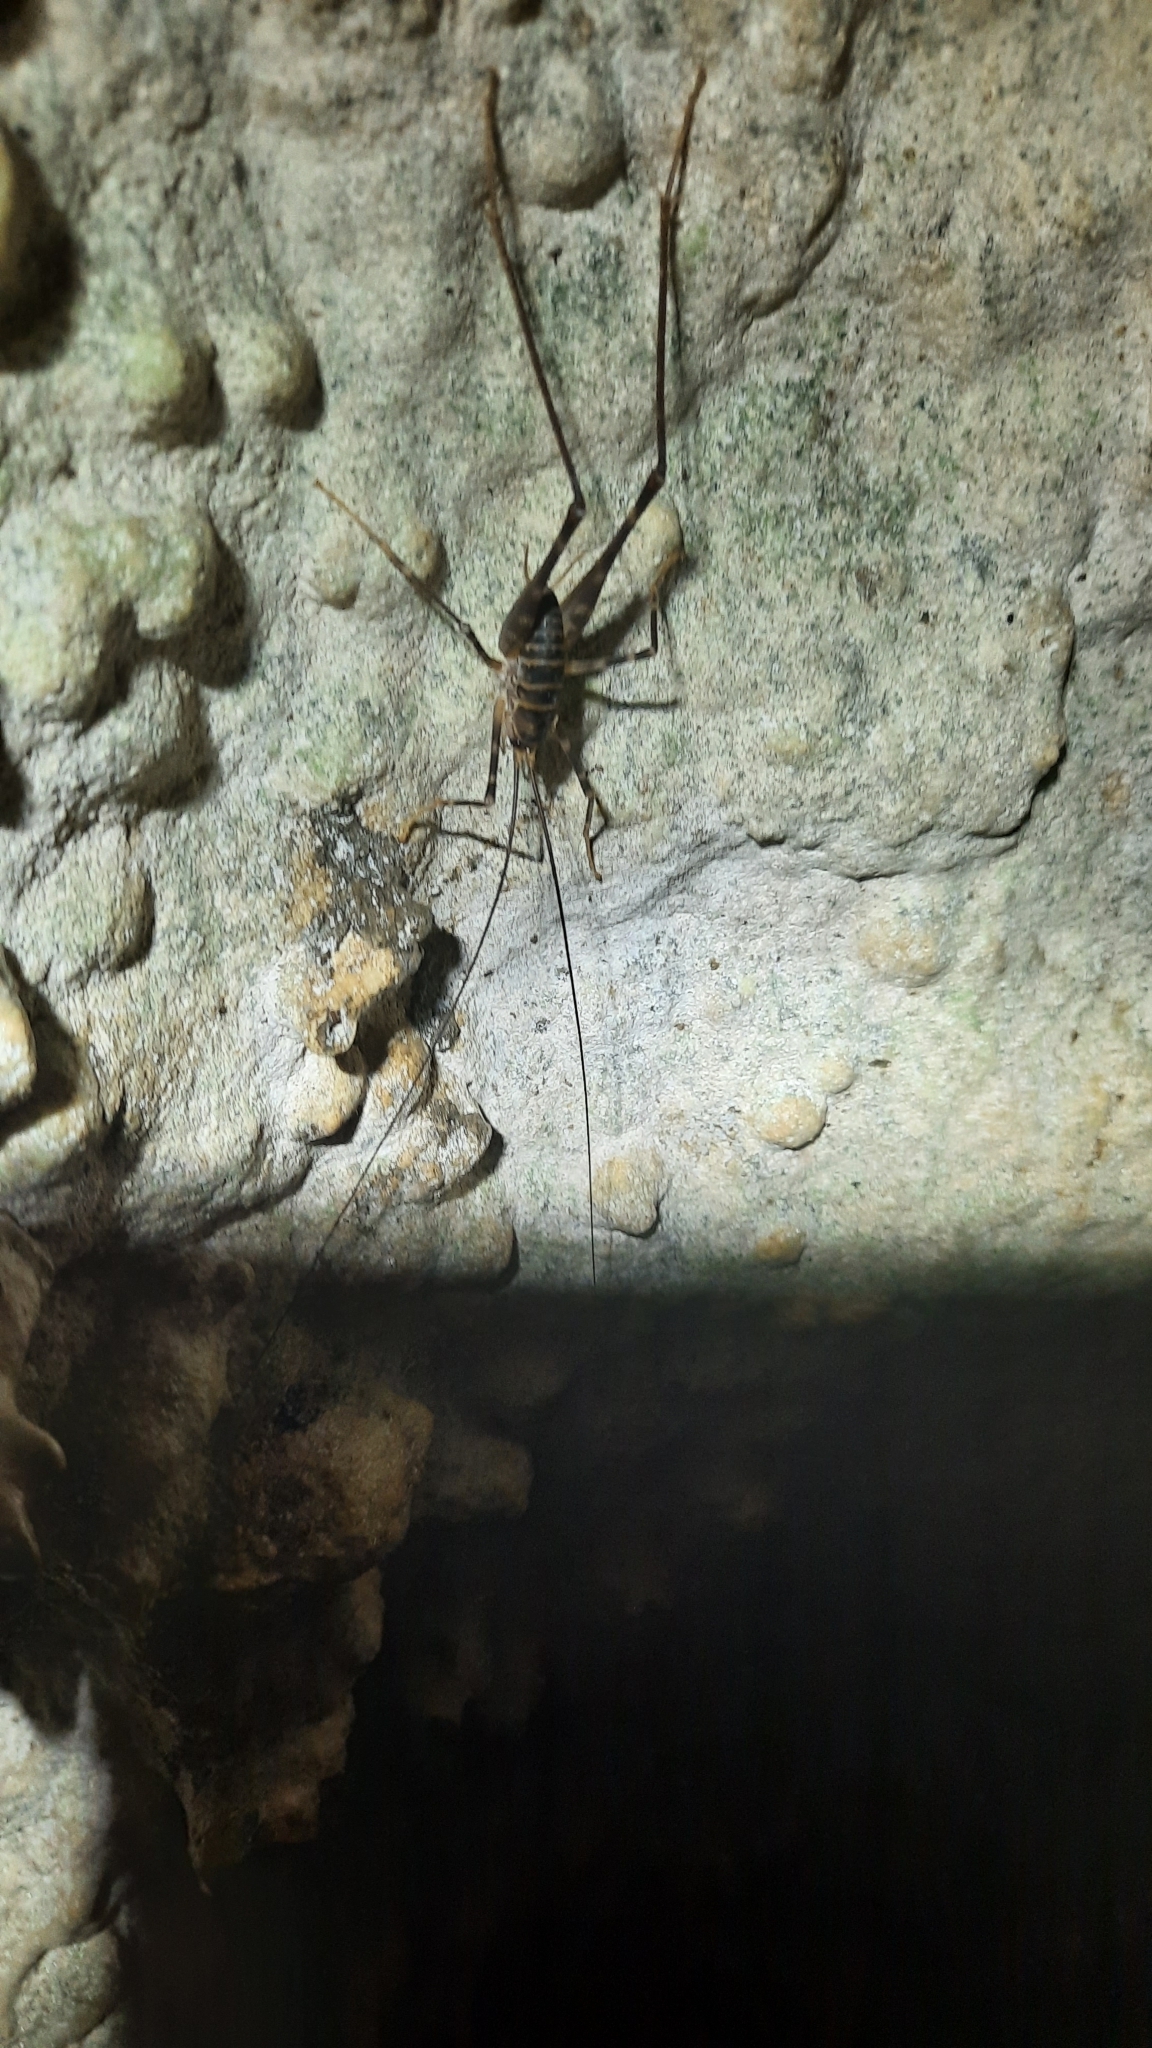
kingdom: Animalia
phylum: Arthropoda
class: Insecta
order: Orthoptera
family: Rhaphidophoridae
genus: Pachyrhamma
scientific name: Pachyrhamma acanthocera
